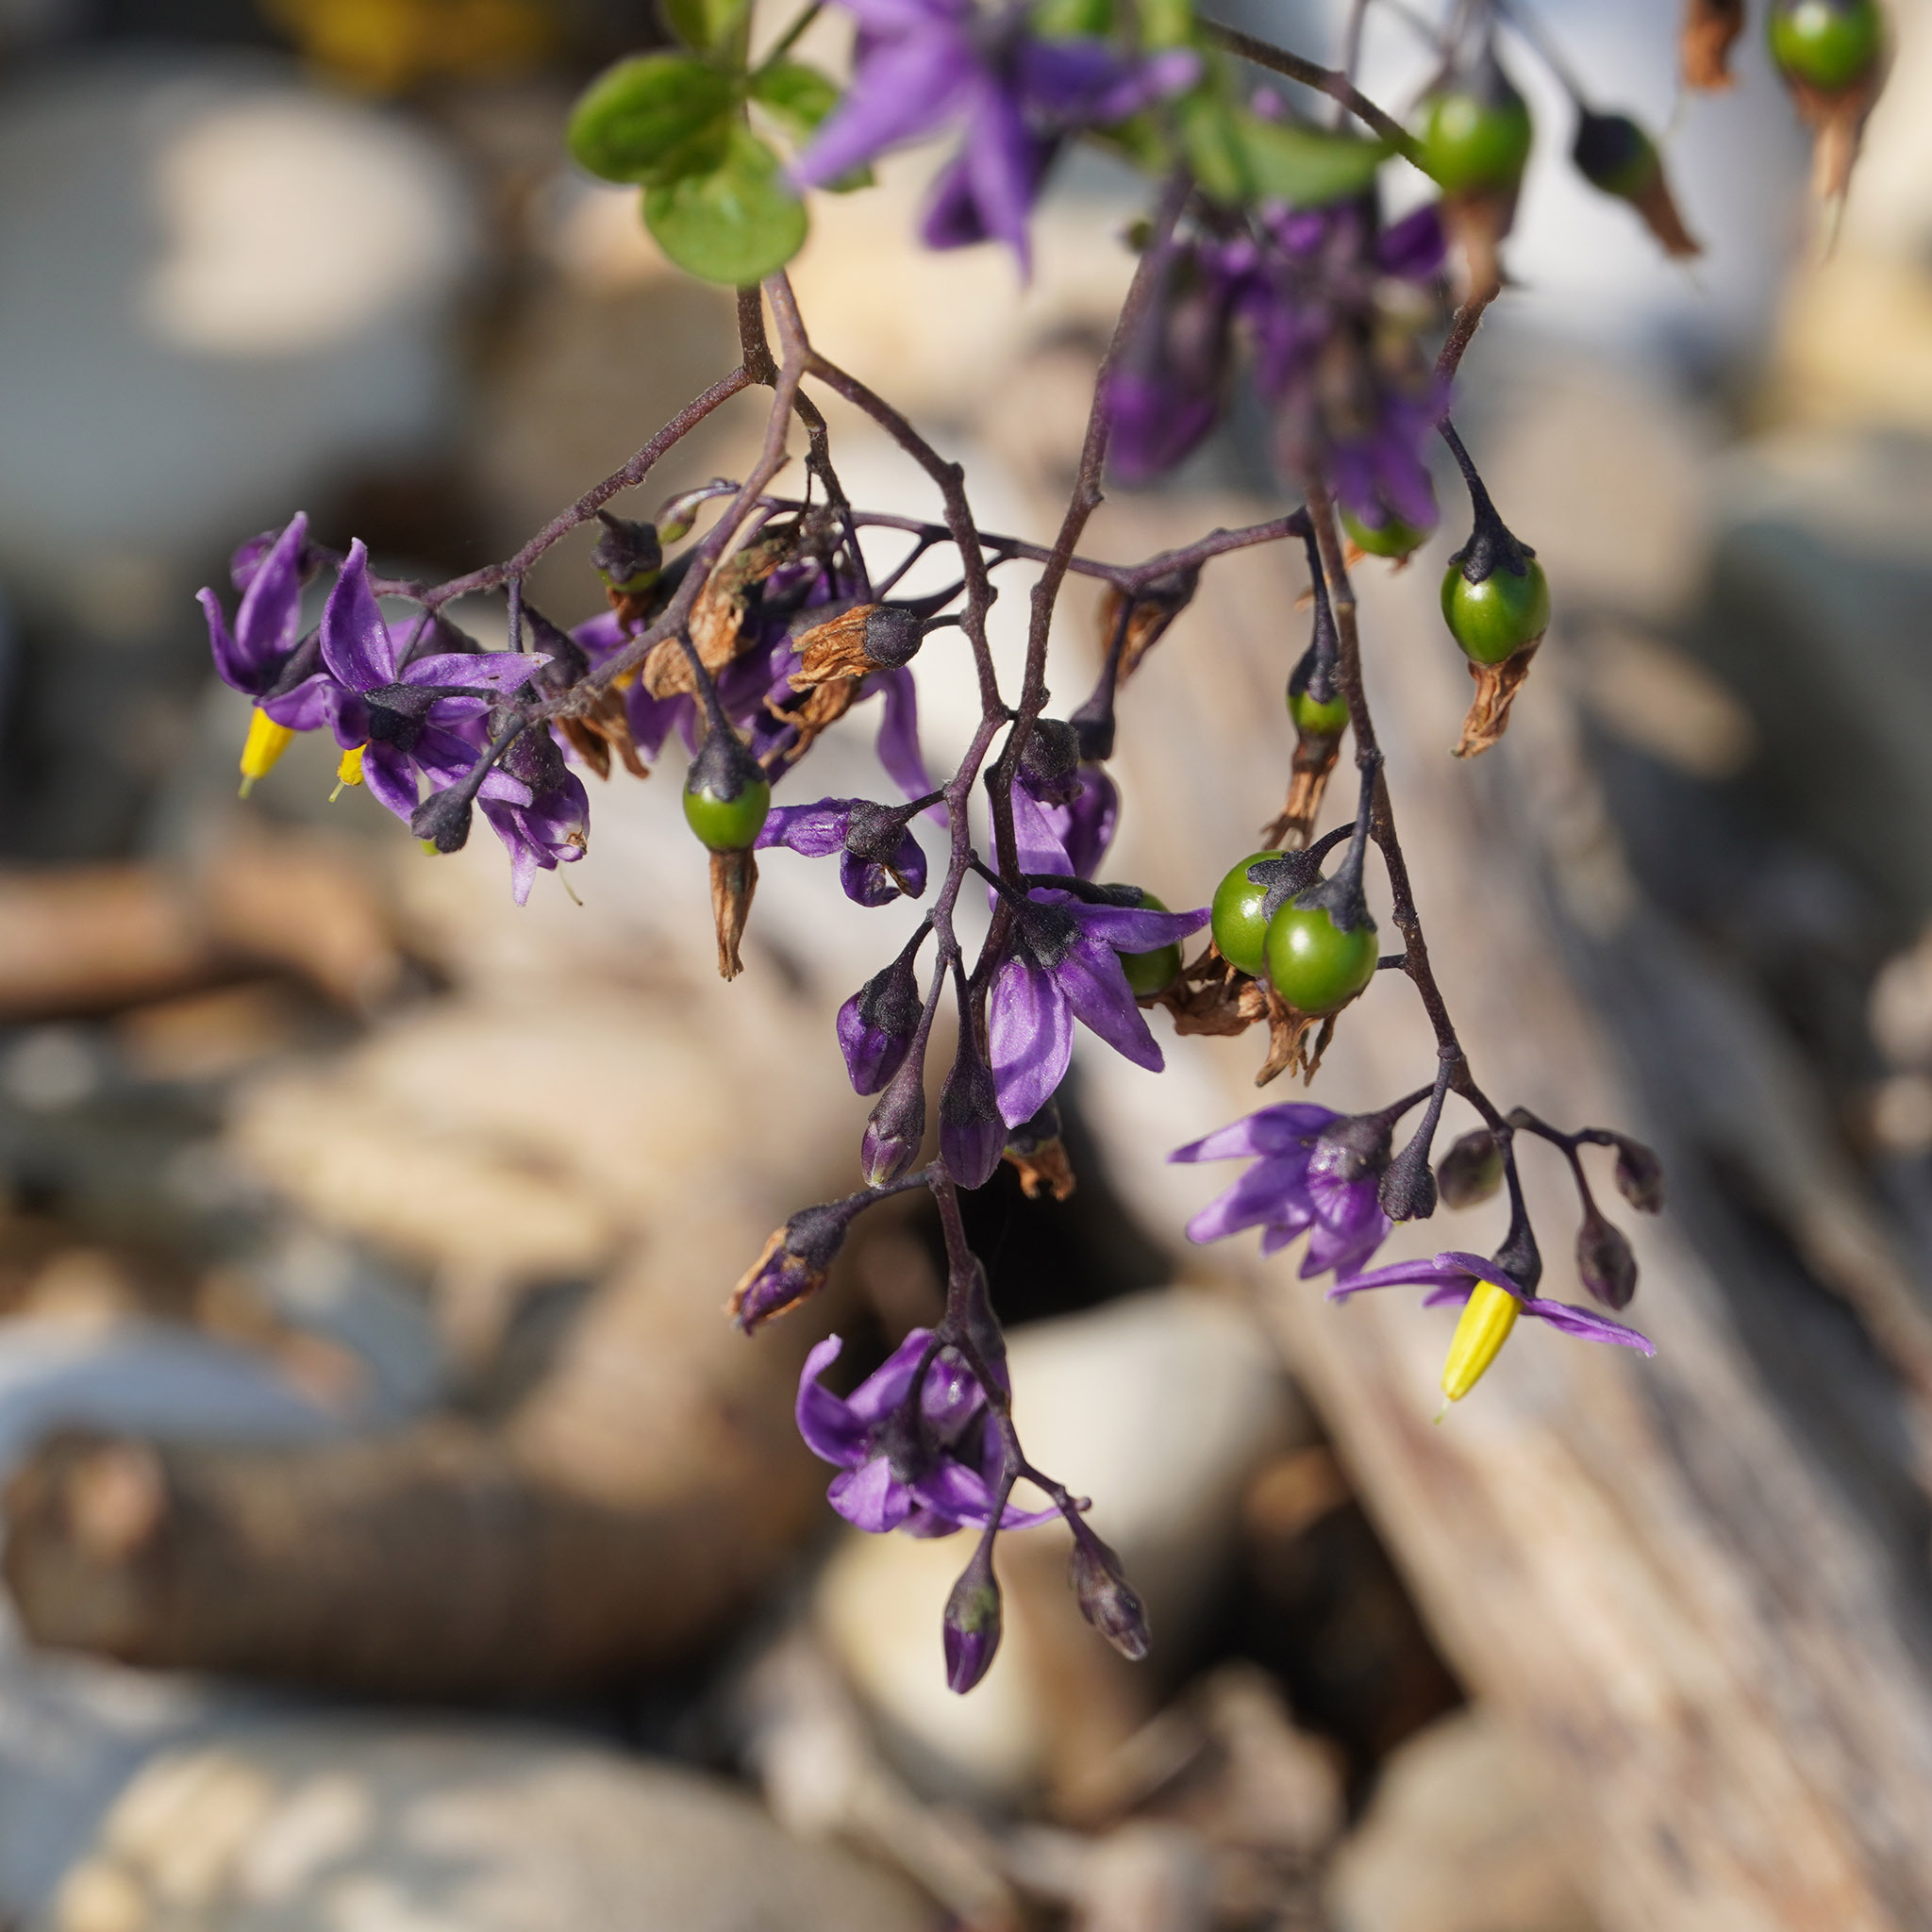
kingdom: Plantae
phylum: Tracheophyta
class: Magnoliopsida
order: Solanales
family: Solanaceae
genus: Solanum
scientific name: Solanum dulcamara
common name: Climbing nightshade
